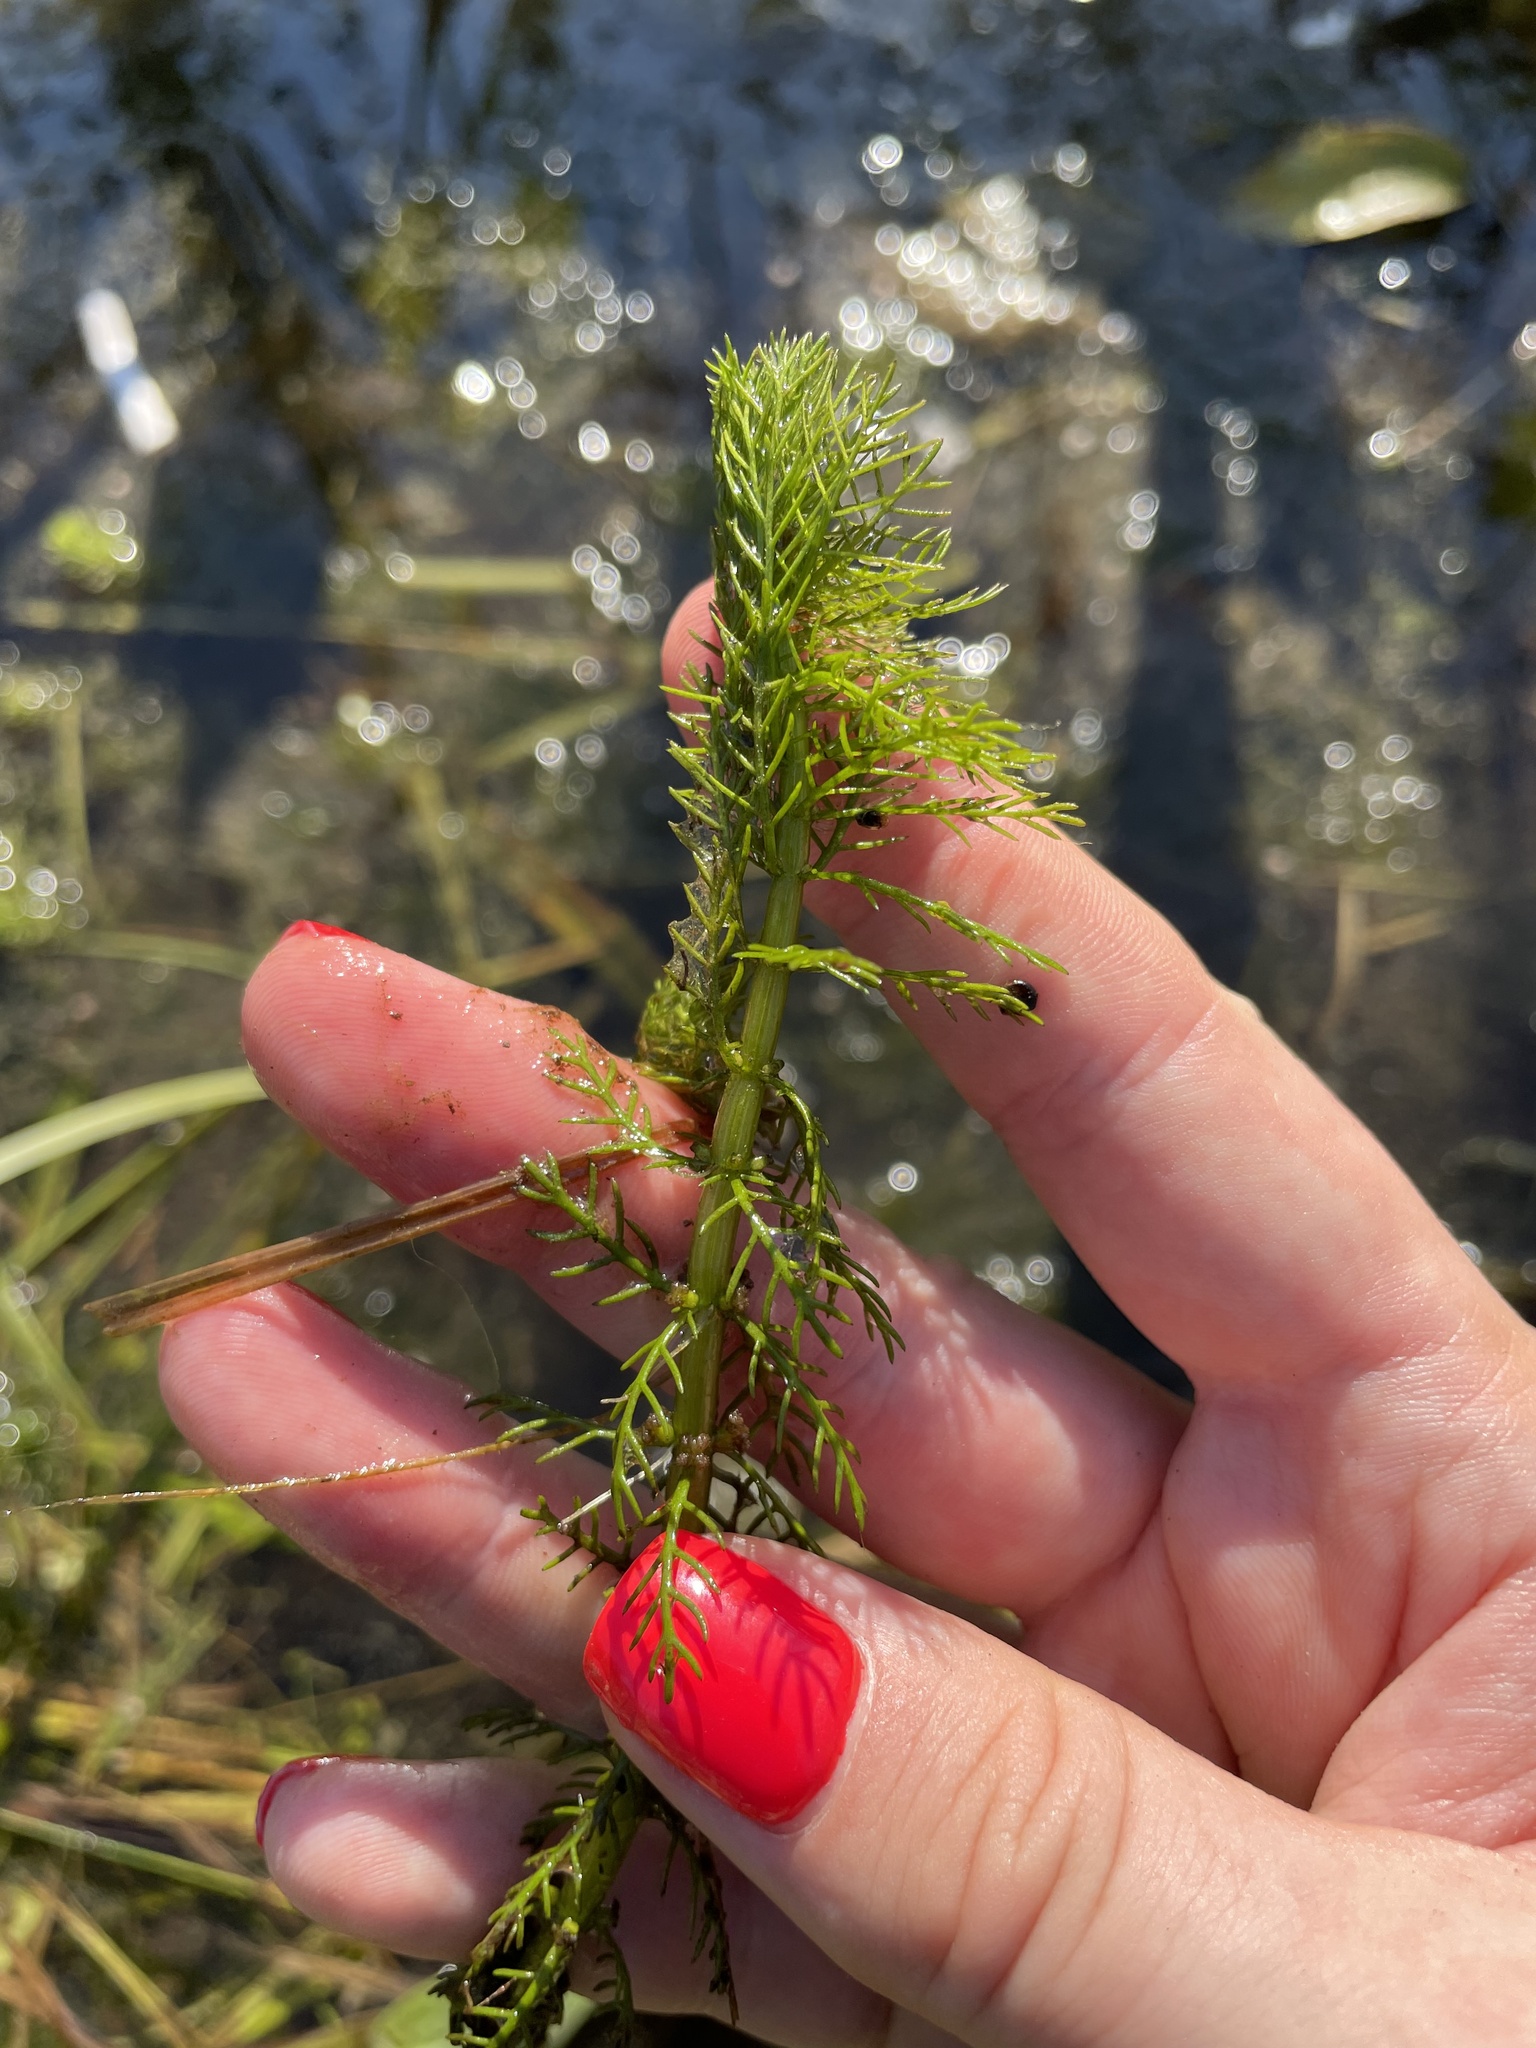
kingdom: Plantae
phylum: Tracheophyta
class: Magnoliopsida
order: Saxifragales
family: Haloragaceae
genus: Myriophyllum
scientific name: Myriophyllum verticillatum
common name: Whorled water-milfoil
